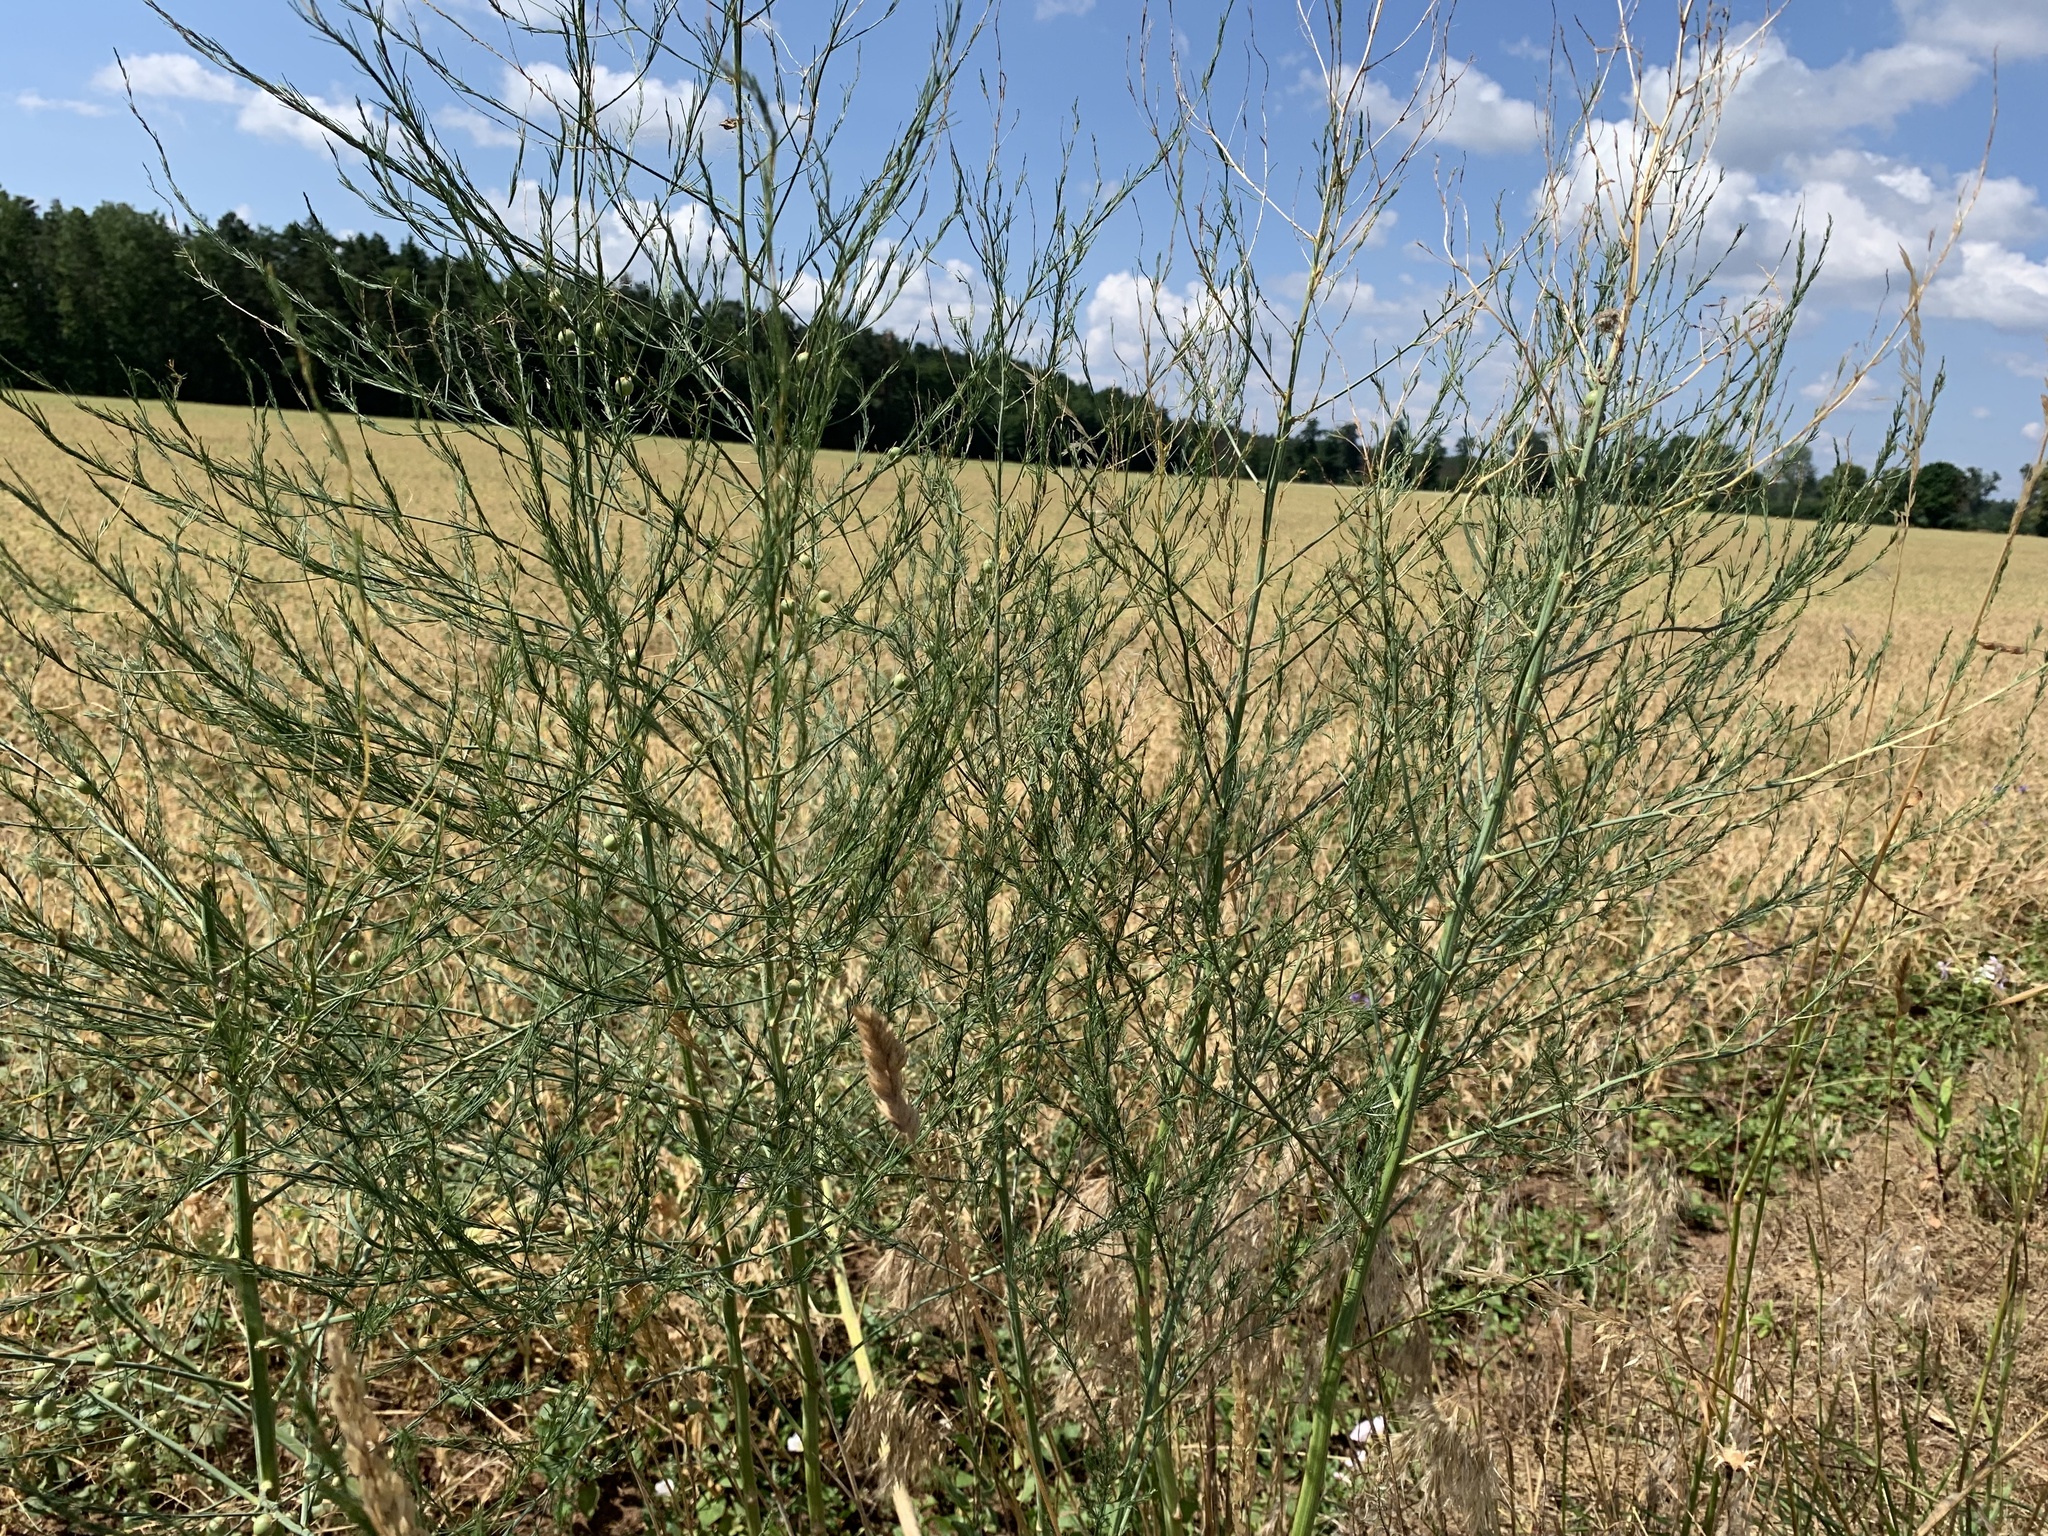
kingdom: Plantae
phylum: Tracheophyta
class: Liliopsida
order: Asparagales
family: Asparagaceae
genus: Asparagus
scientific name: Asparagus officinalis
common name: Garden asparagus
